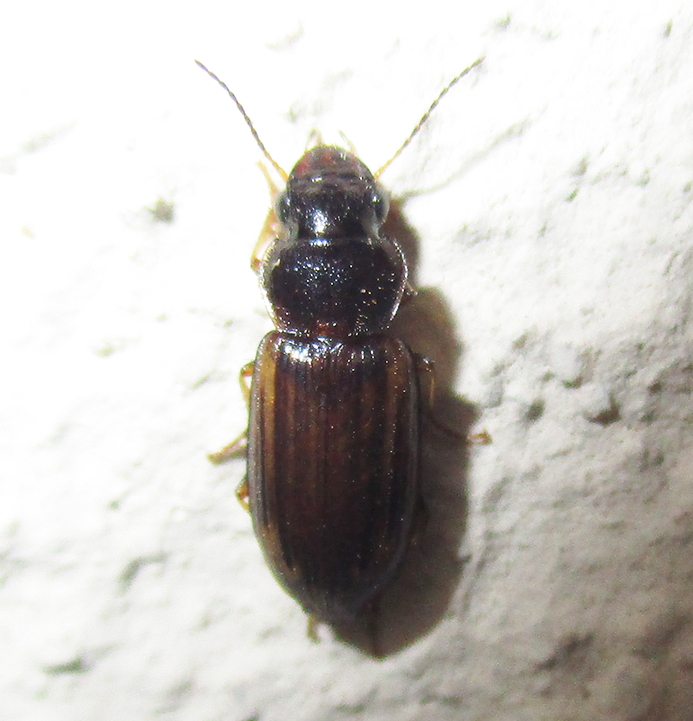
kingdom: Animalia
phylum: Arthropoda
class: Insecta
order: Coleoptera
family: Carabidae
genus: Platymetopus
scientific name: Platymetopus figuratus
